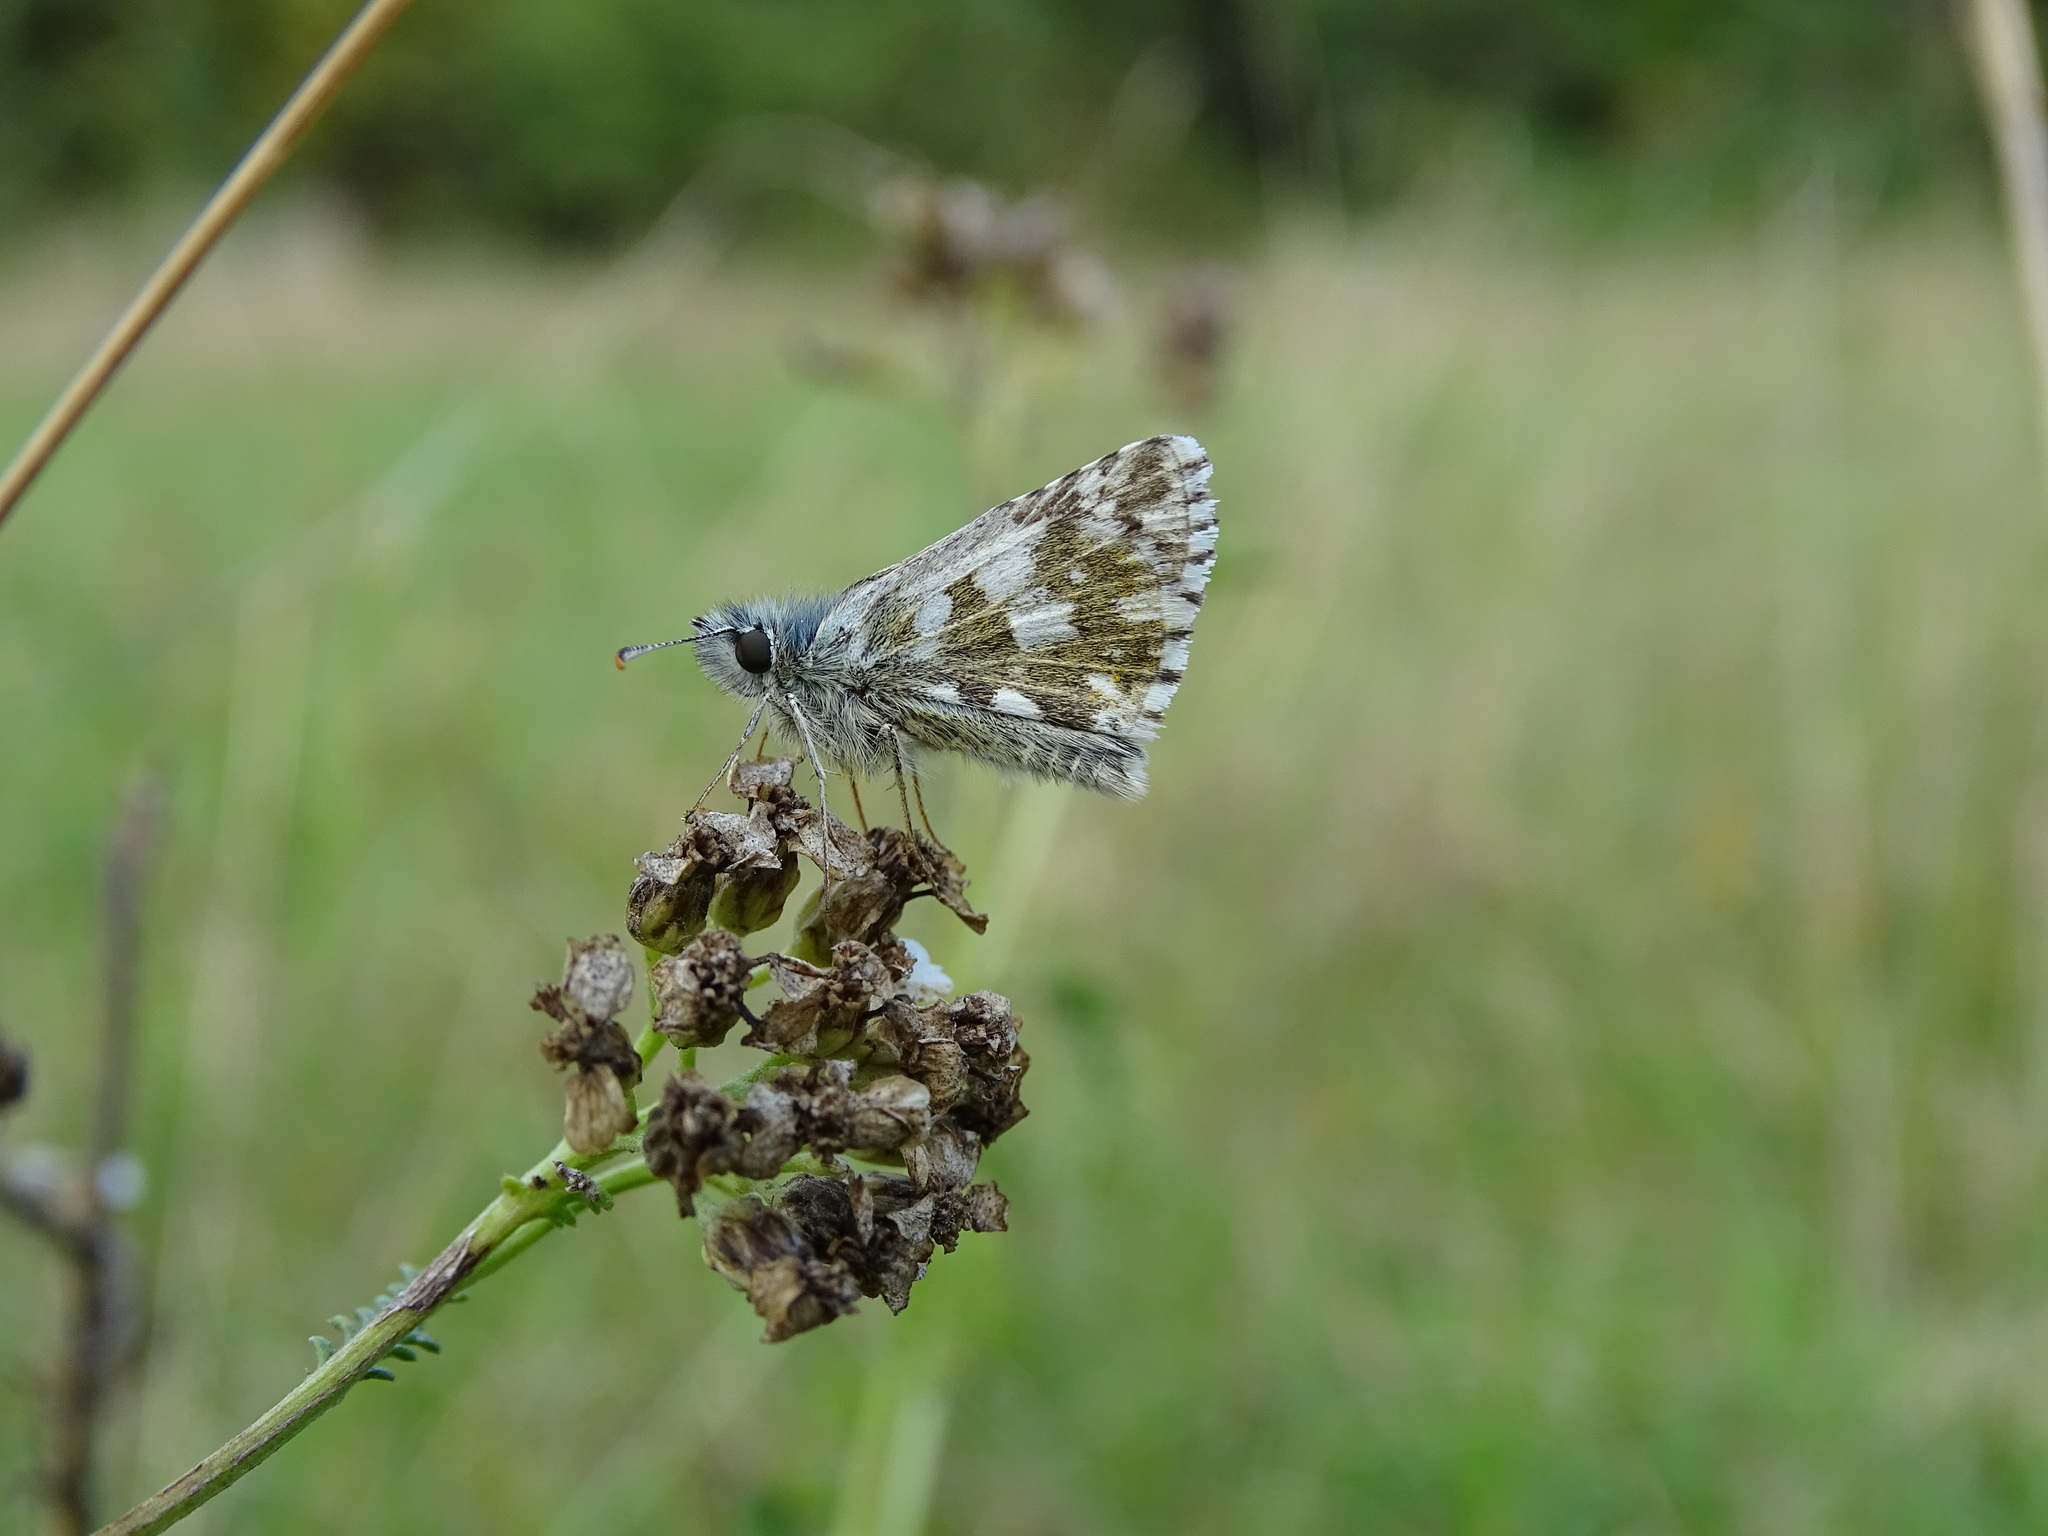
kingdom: Animalia
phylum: Arthropoda
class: Insecta
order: Lepidoptera
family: Hesperiidae
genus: Pyrgus
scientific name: Pyrgus armoricanus
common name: Oberthür's grizzled skipper
